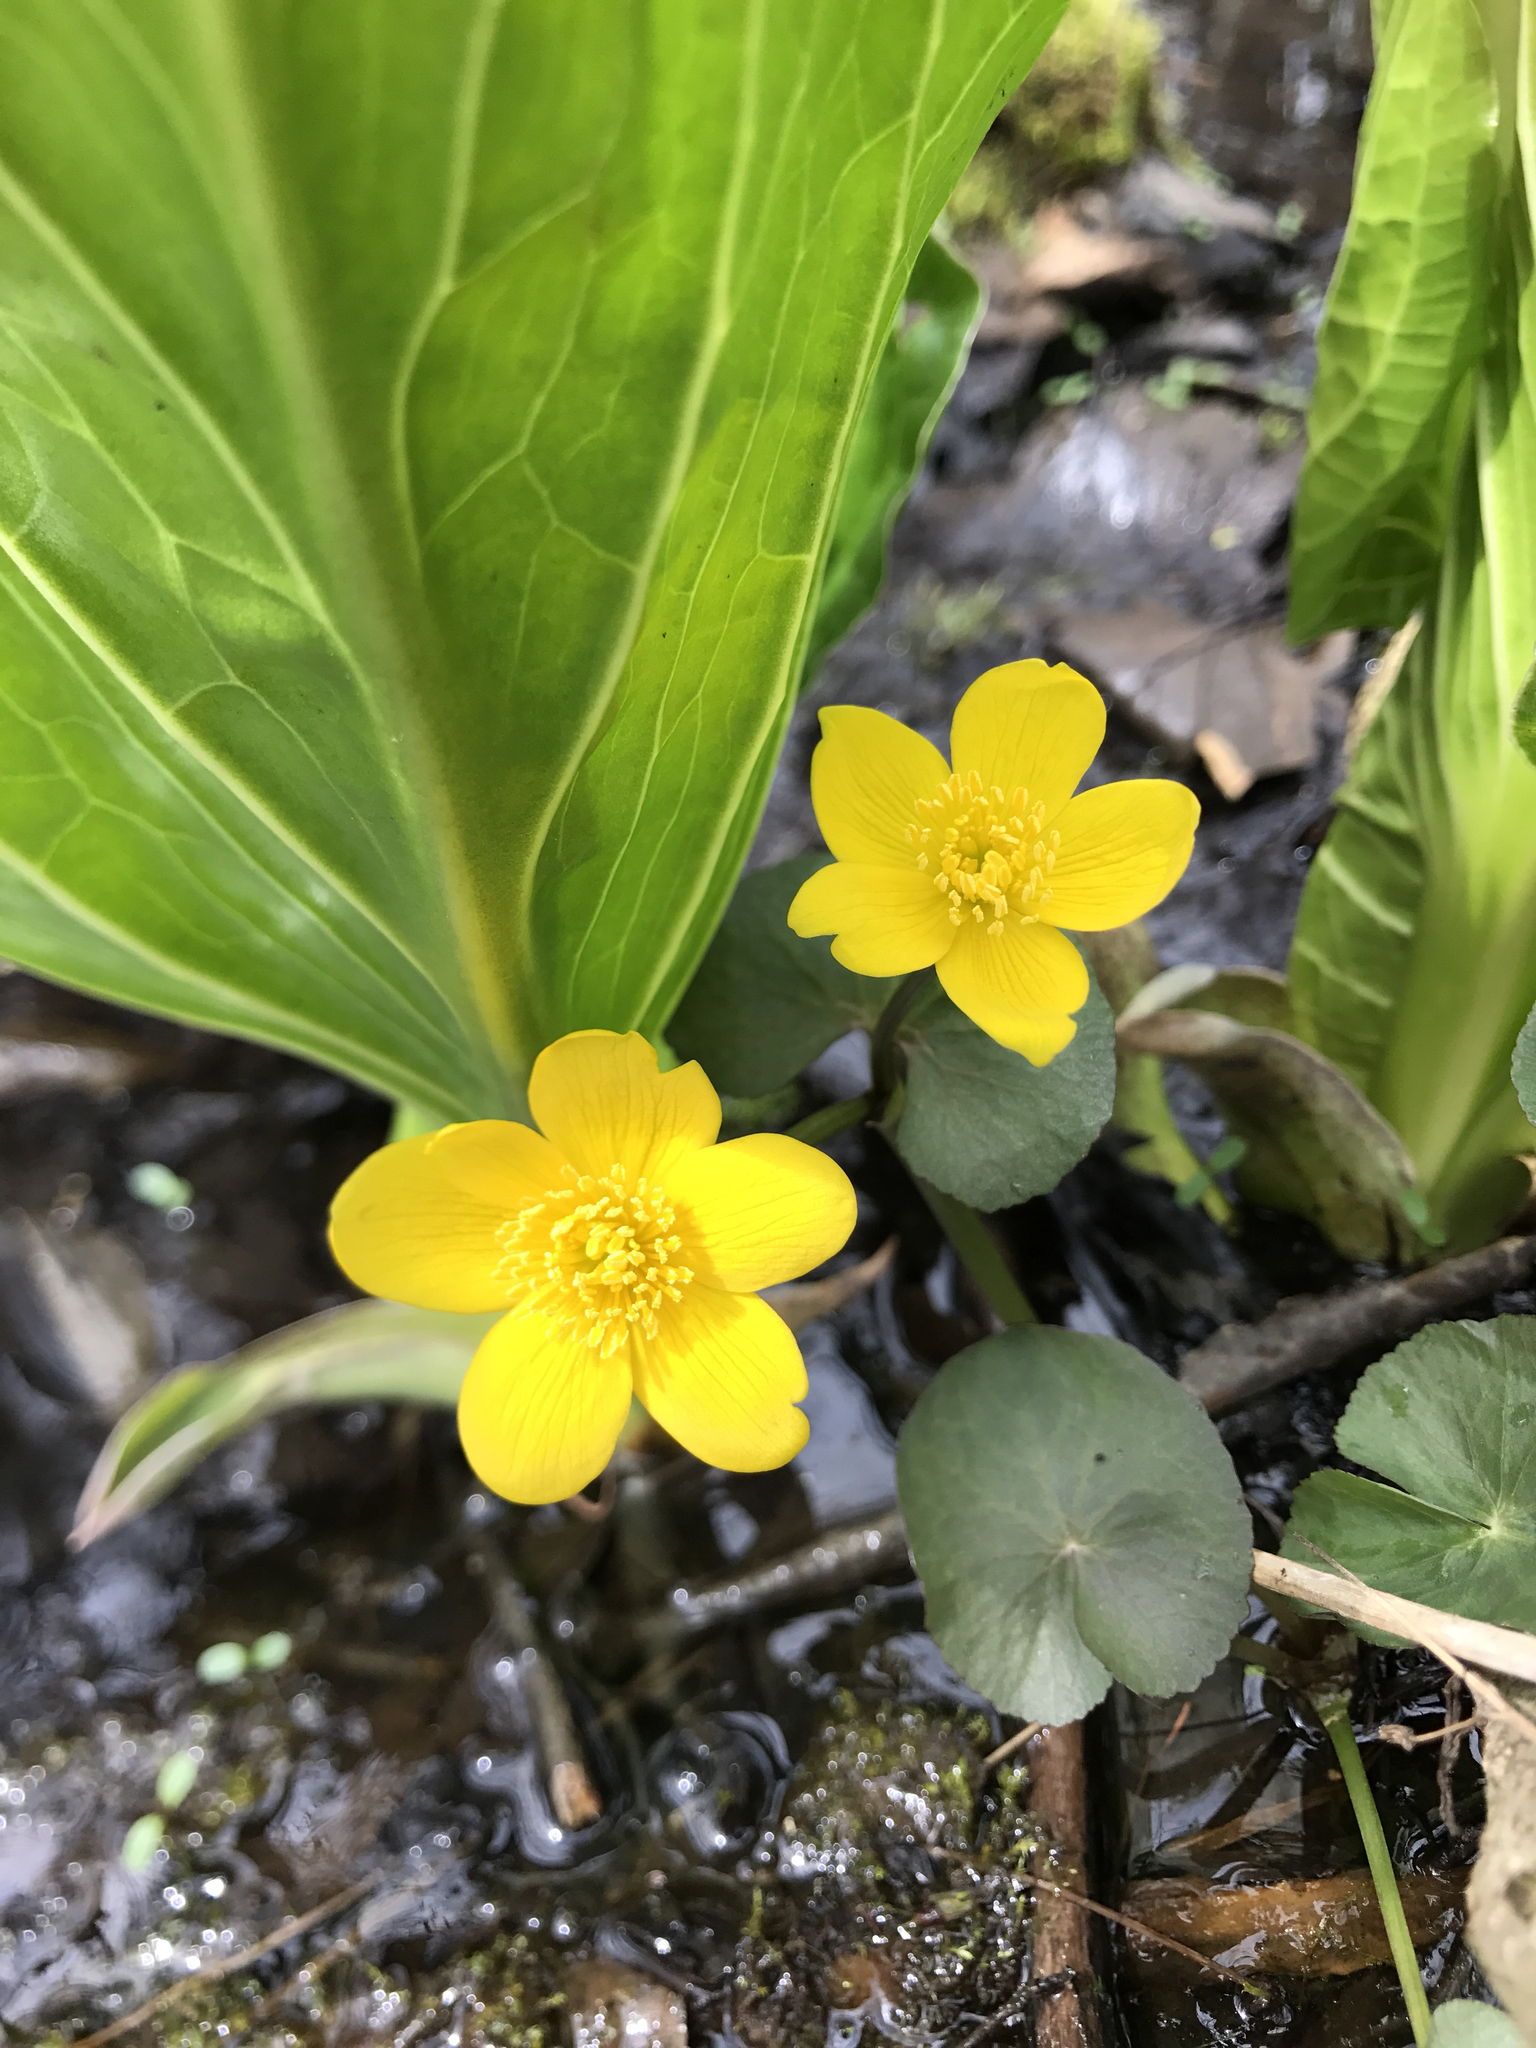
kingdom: Plantae
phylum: Tracheophyta
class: Magnoliopsida
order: Ranunculales
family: Ranunculaceae
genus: Caltha
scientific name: Caltha palustris
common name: Marsh marigold
